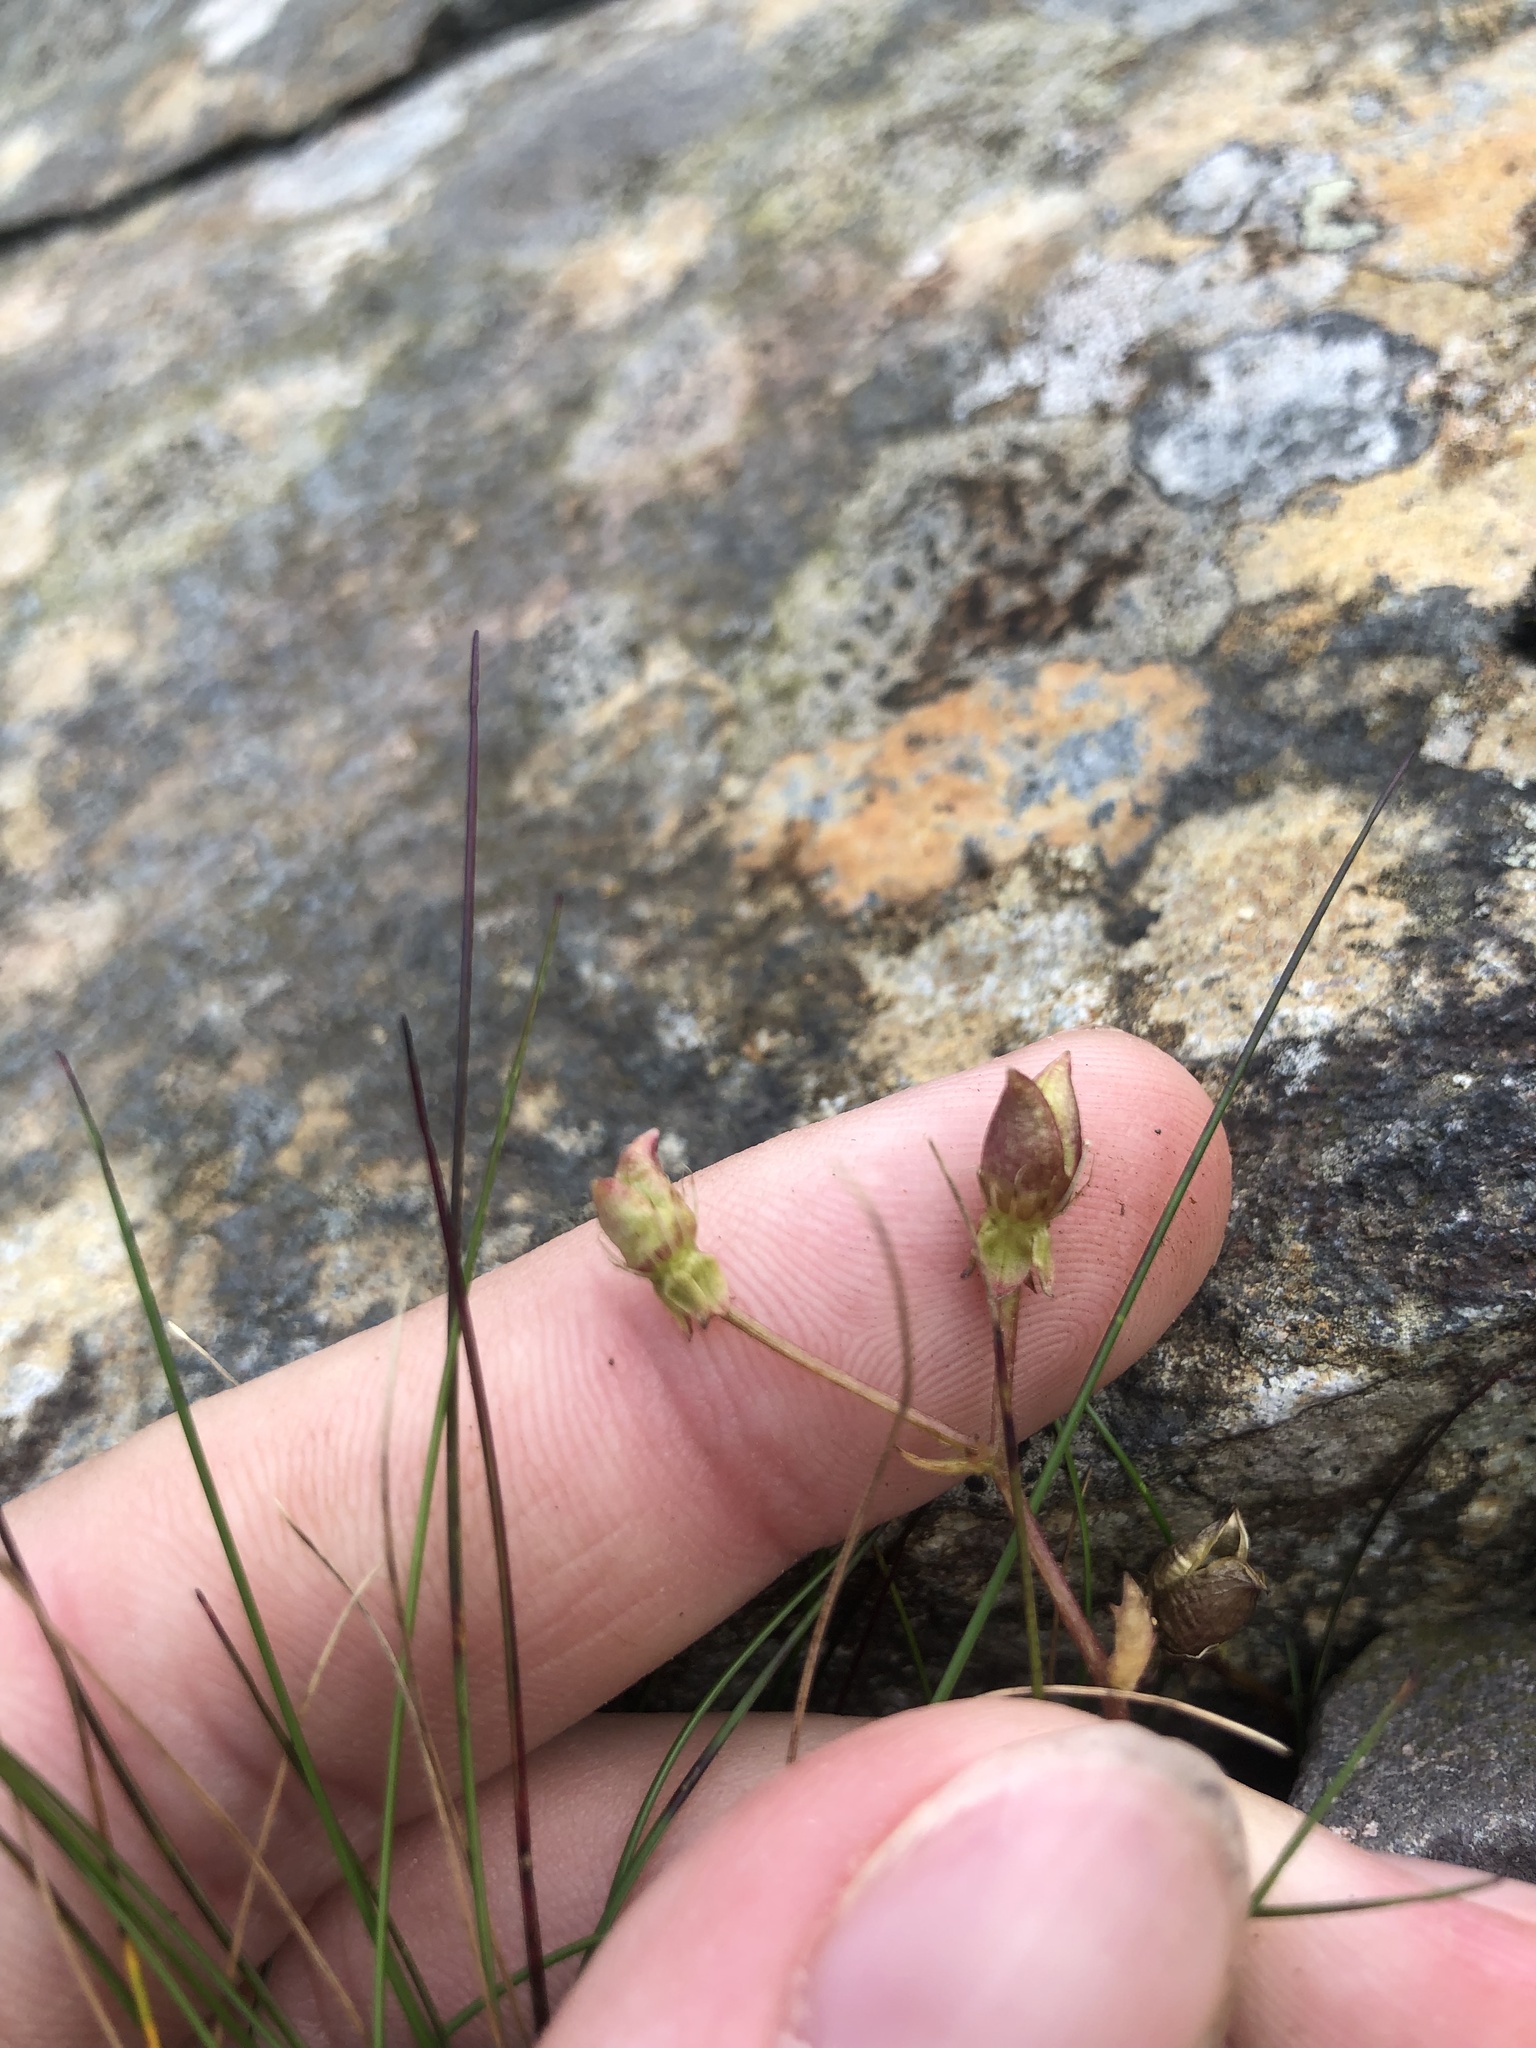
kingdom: Plantae
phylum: Tracheophyta
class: Magnoliopsida
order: Saxifragales
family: Saxifragaceae
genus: Micranthes
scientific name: Micranthes stellaris
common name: Starry saxifrage
